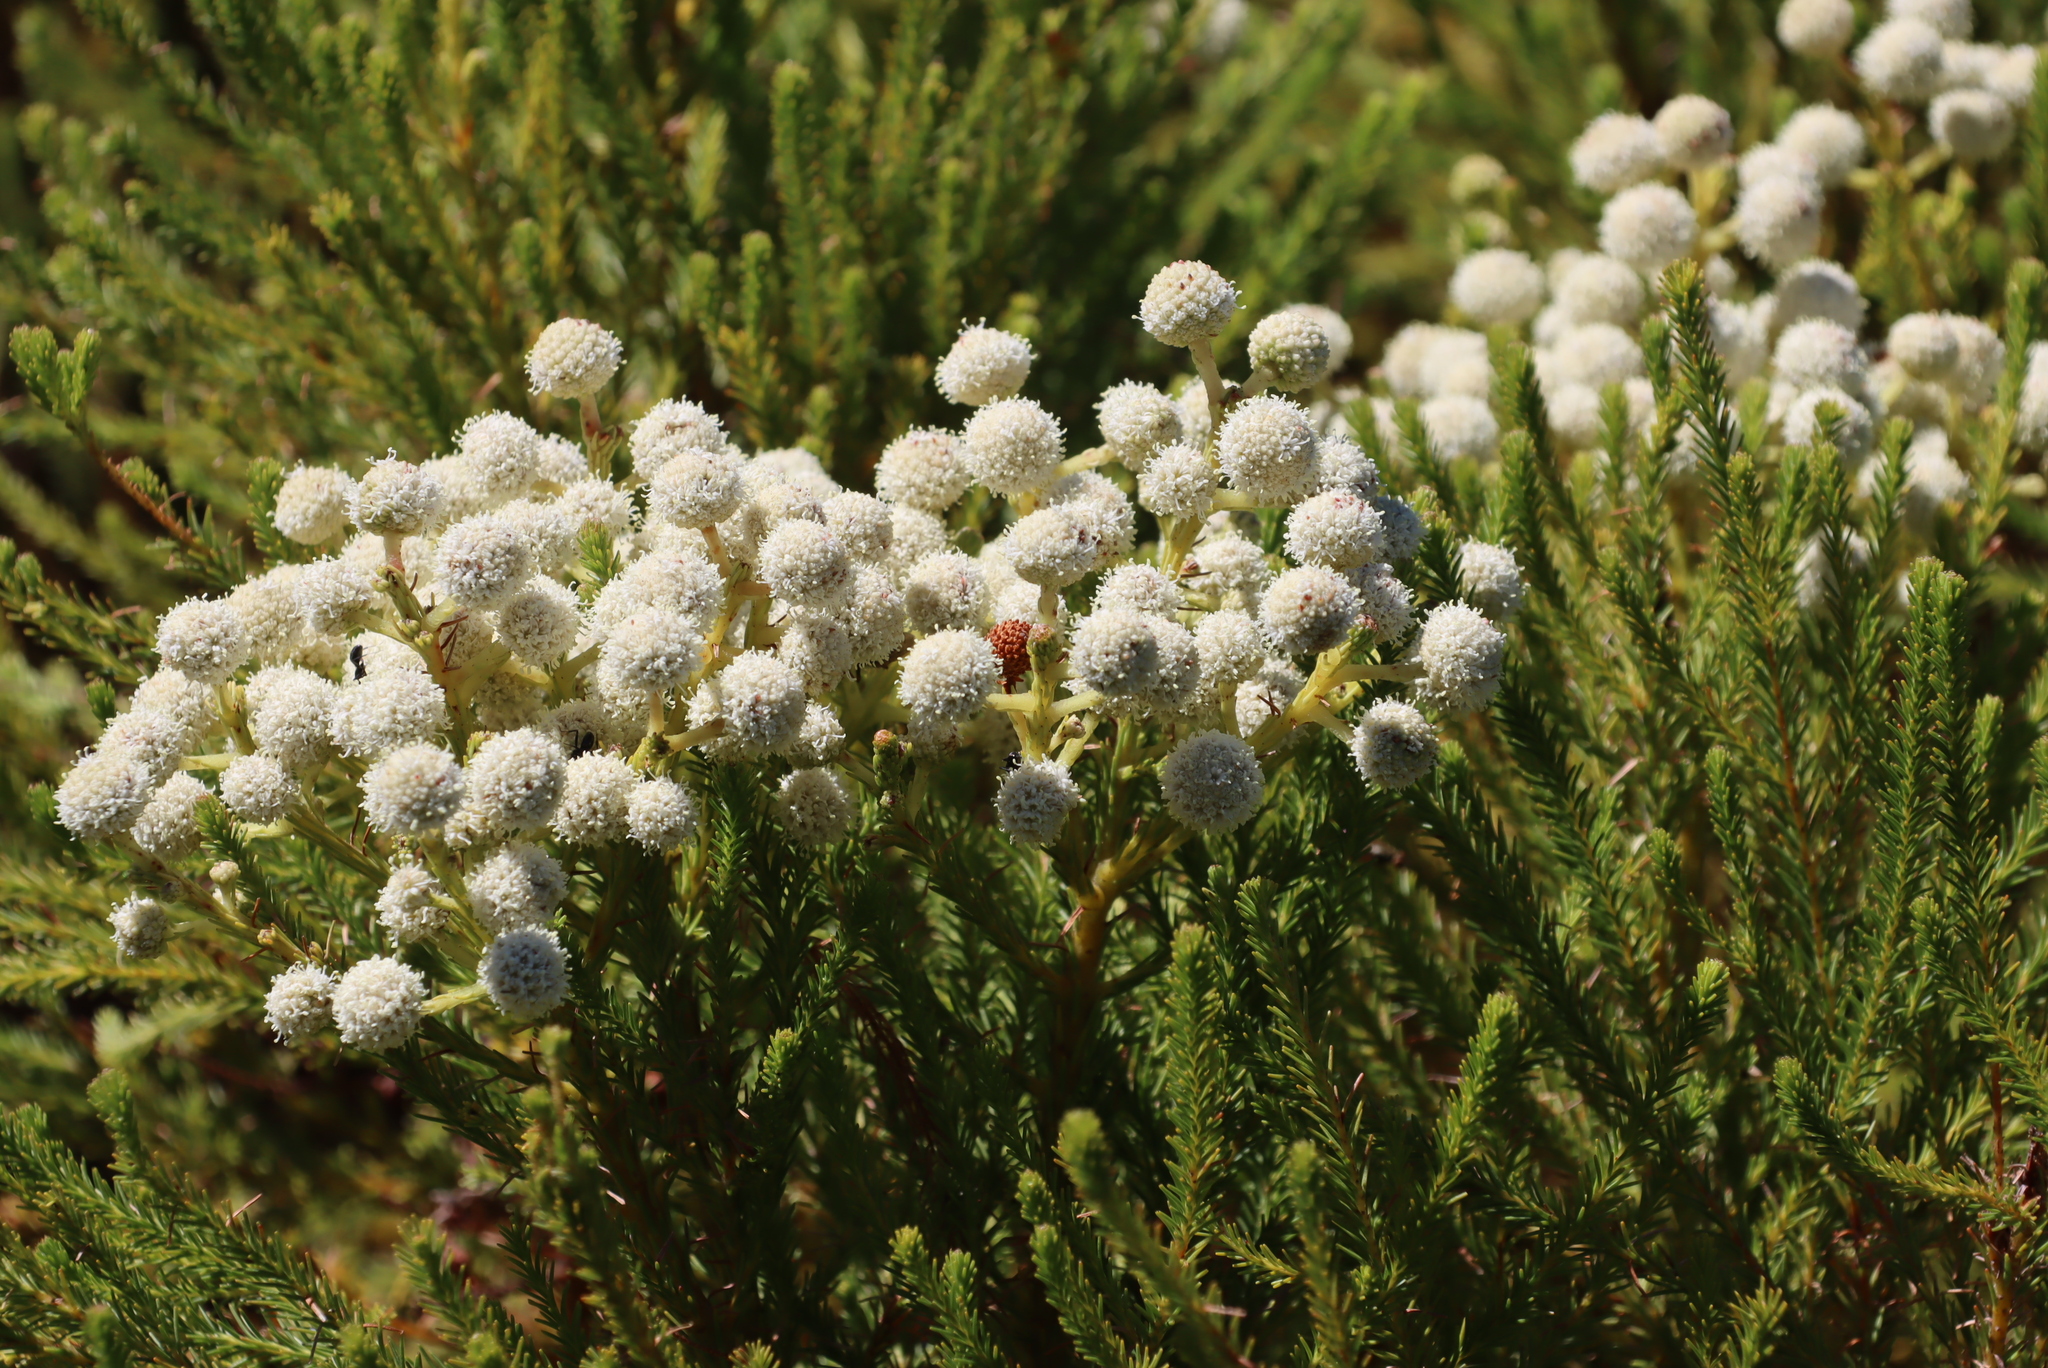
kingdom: Plantae
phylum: Tracheophyta
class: Magnoliopsida
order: Bruniales
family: Bruniaceae
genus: Berzelia
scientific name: Berzelia lanuginosa
